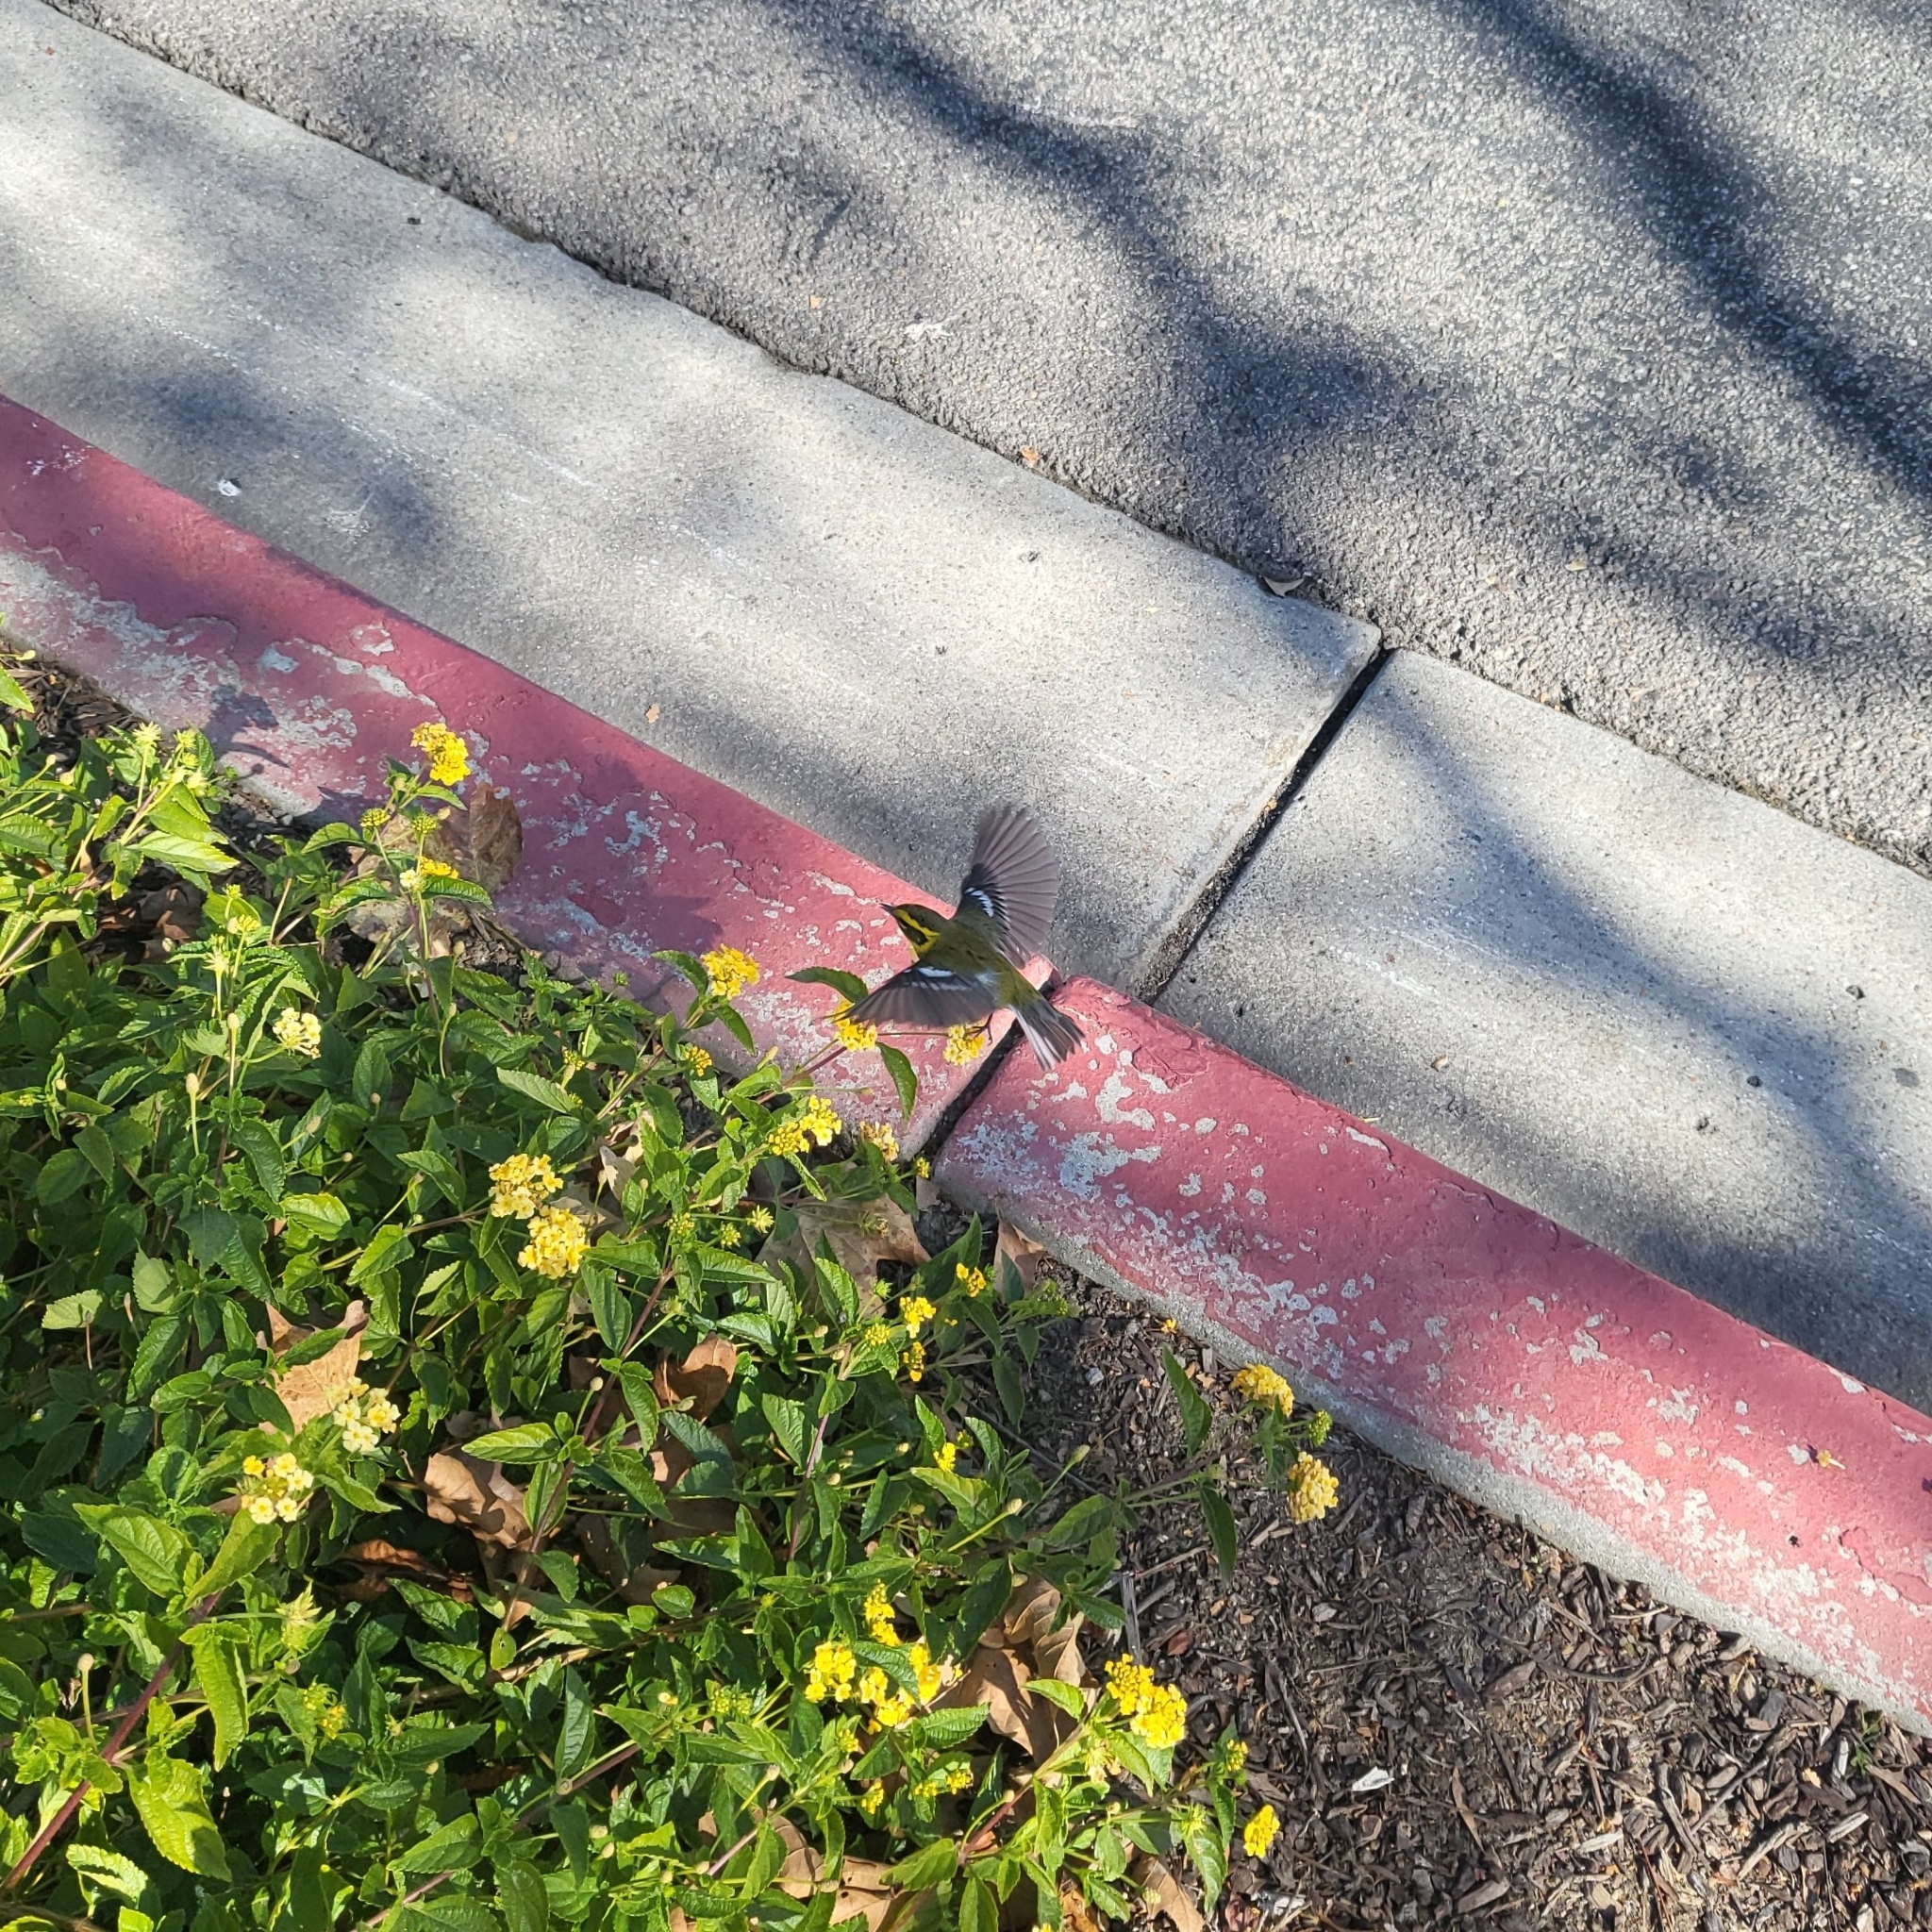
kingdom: Animalia
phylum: Chordata
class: Aves
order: Passeriformes
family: Parulidae
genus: Setophaga
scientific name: Setophaga townsendi
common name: Townsend's warbler
